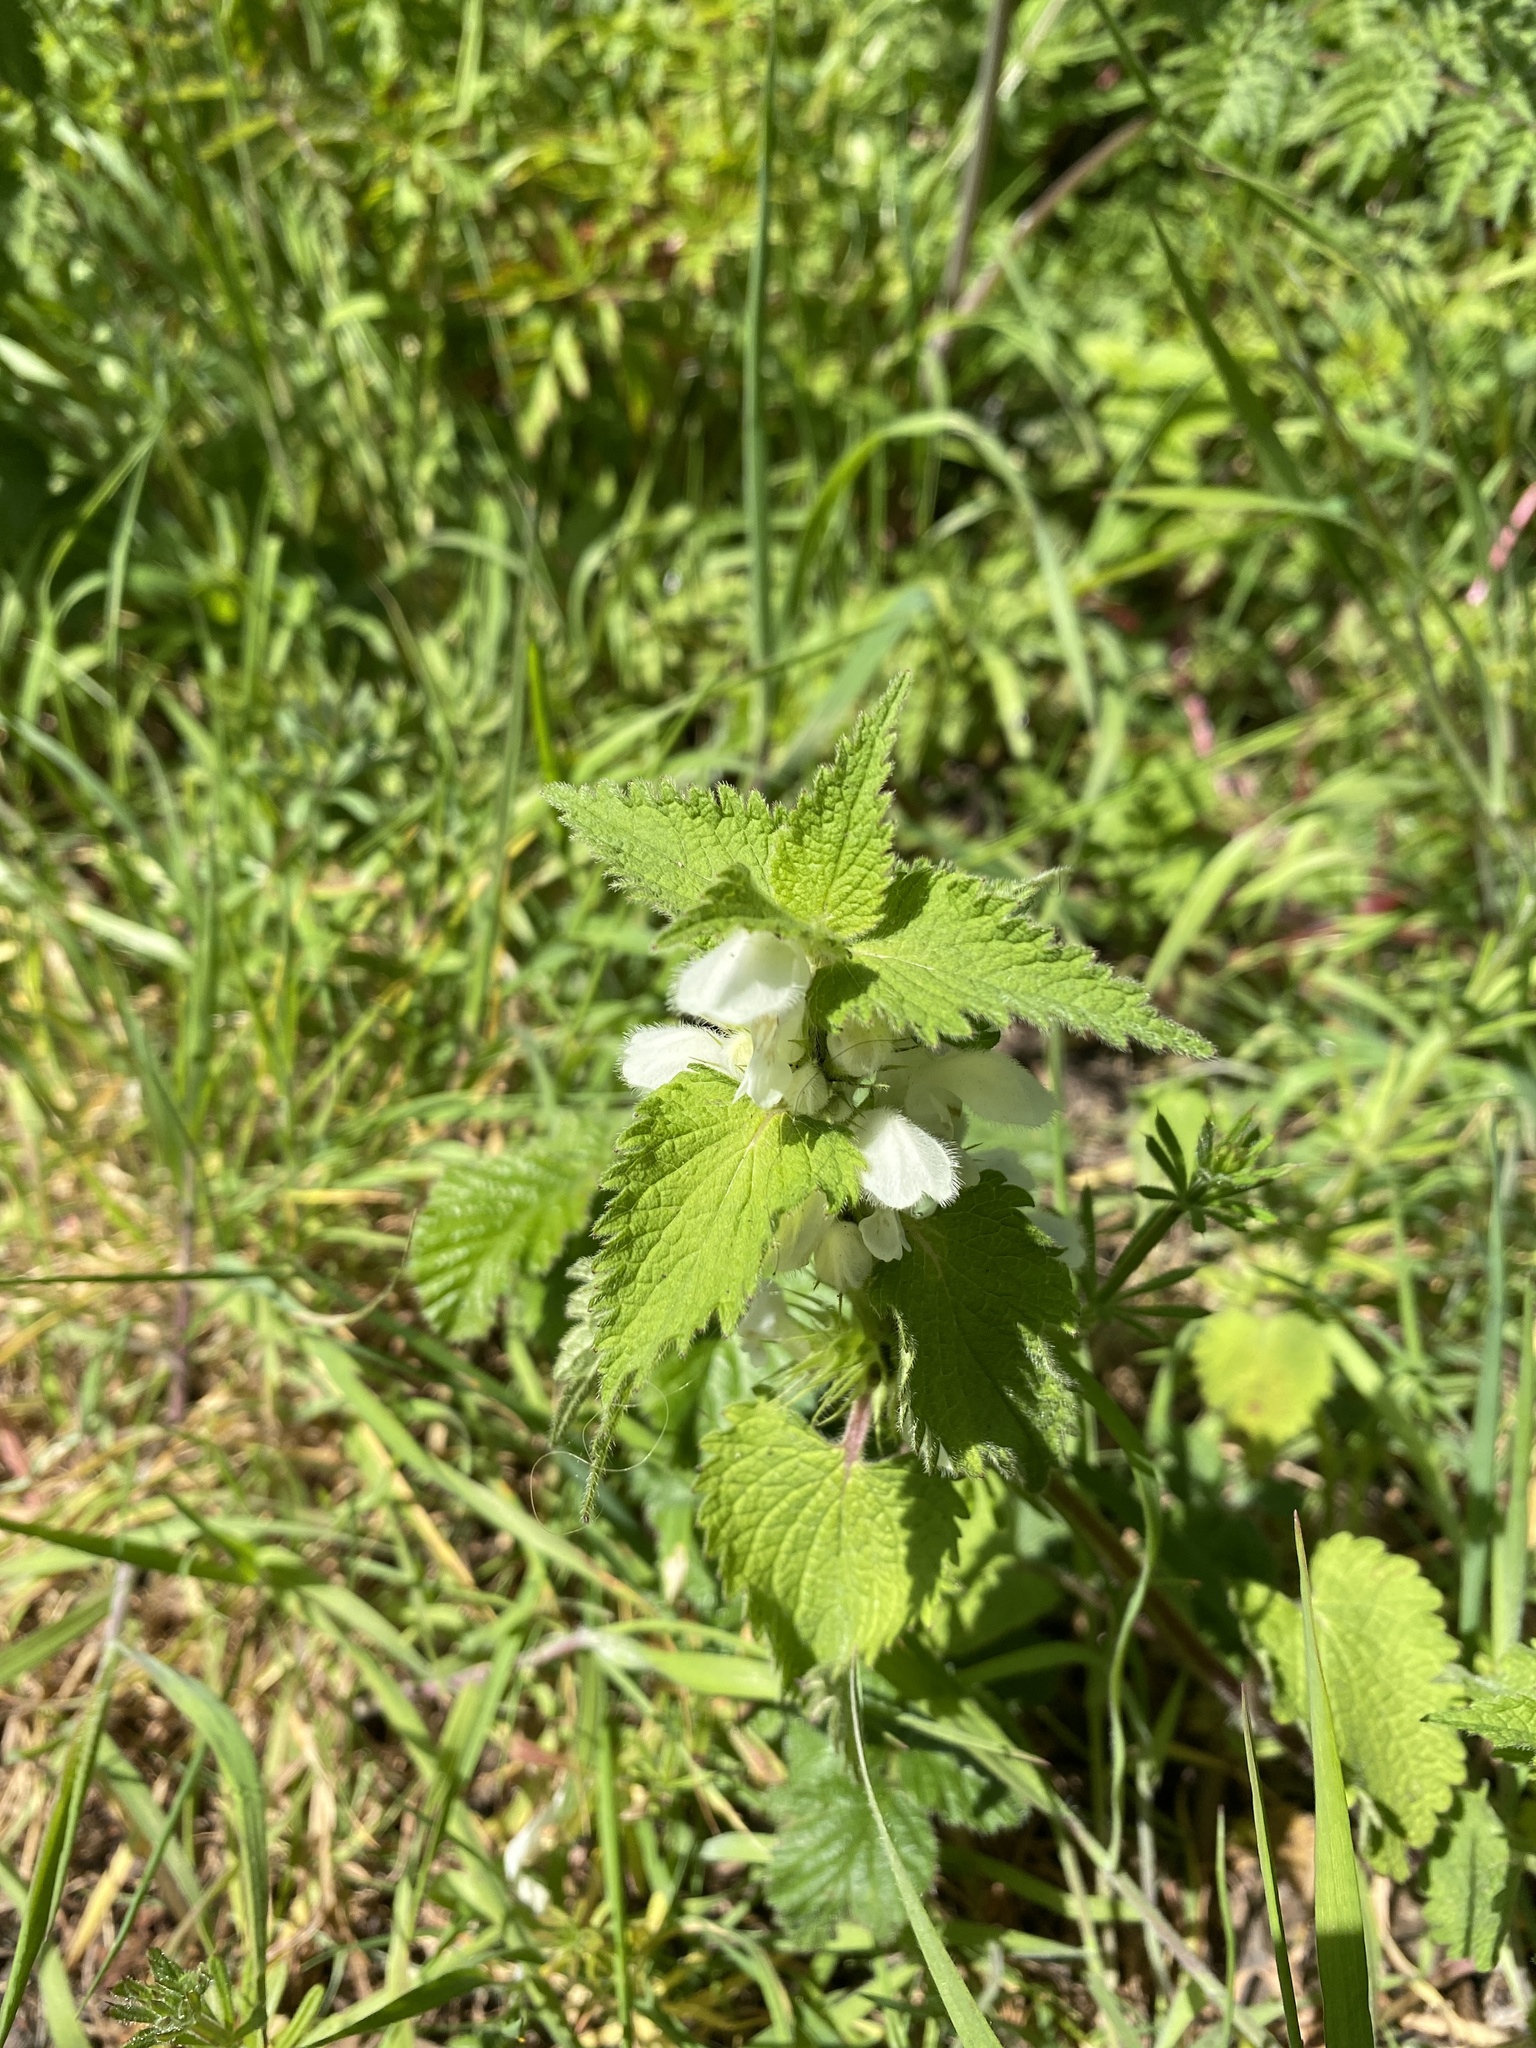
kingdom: Plantae
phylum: Tracheophyta
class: Magnoliopsida
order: Lamiales
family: Lamiaceae
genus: Lamium
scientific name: Lamium album
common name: White dead-nettle
